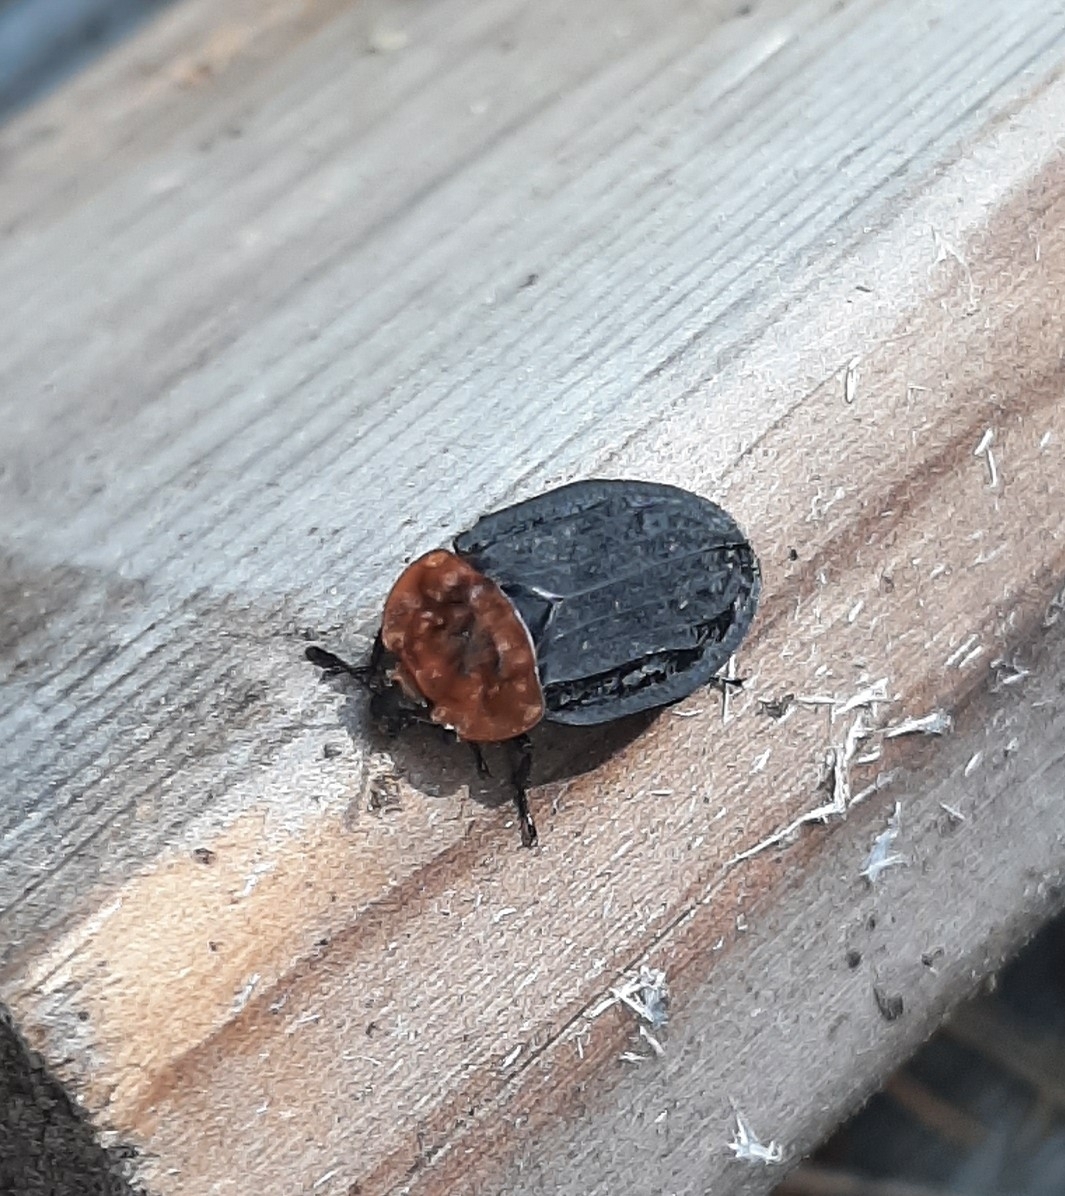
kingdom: Animalia
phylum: Arthropoda
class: Insecta
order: Coleoptera
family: Staphylinidae
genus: Oiceoptoma
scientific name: Oiceoptoma thoracicum
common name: Red-breasted carrion beetle
